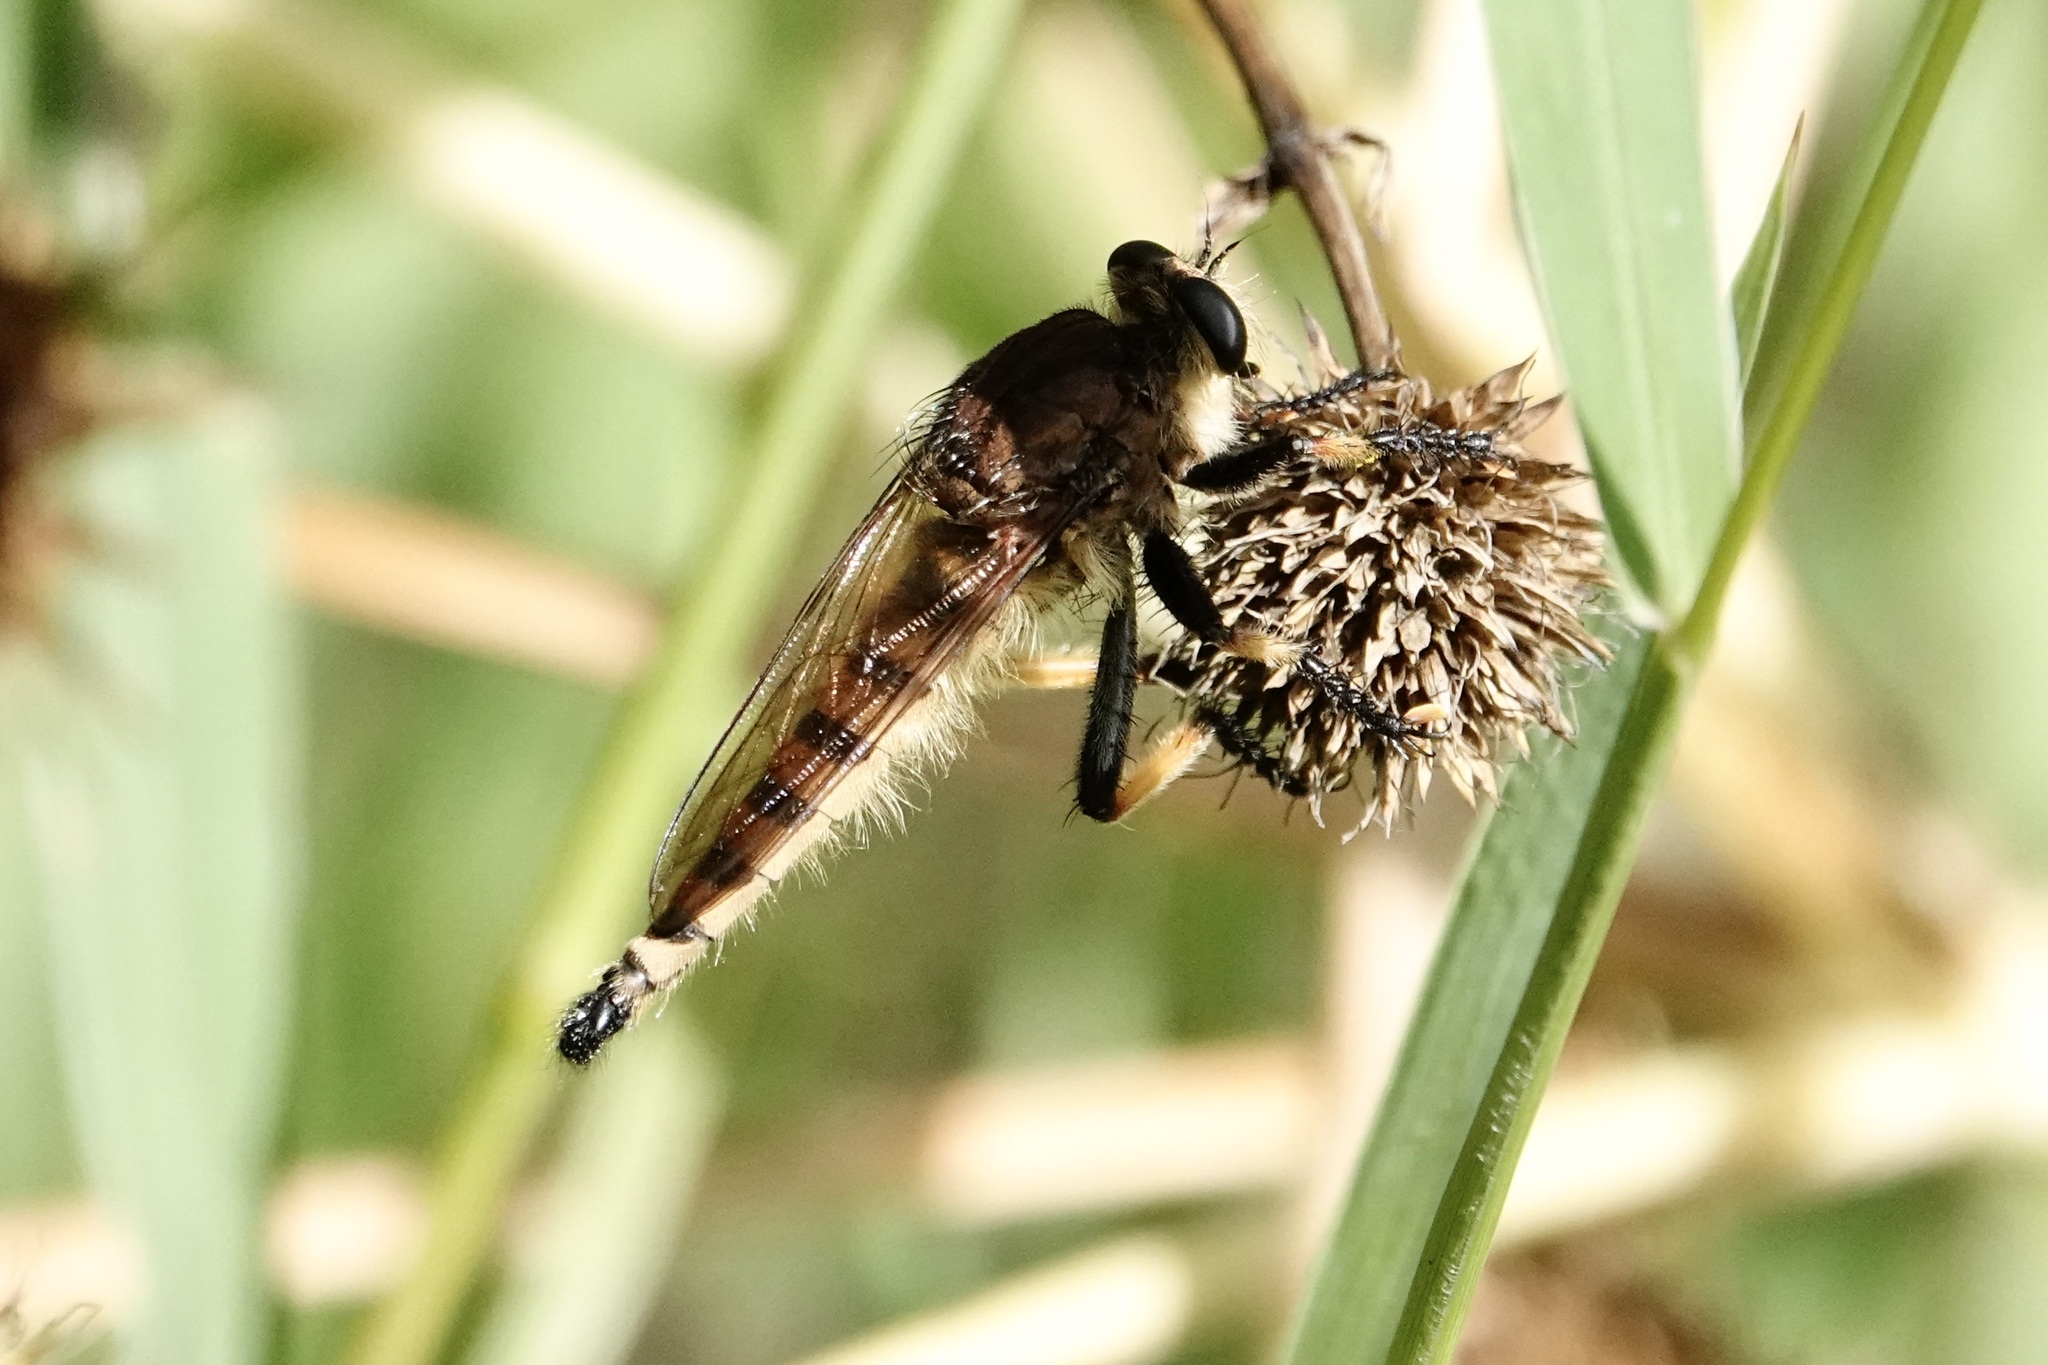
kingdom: Animalia
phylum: Arthropoda
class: Insecta
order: Diptera
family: Asilidae
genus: Promachus
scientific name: Promachus rufipes
